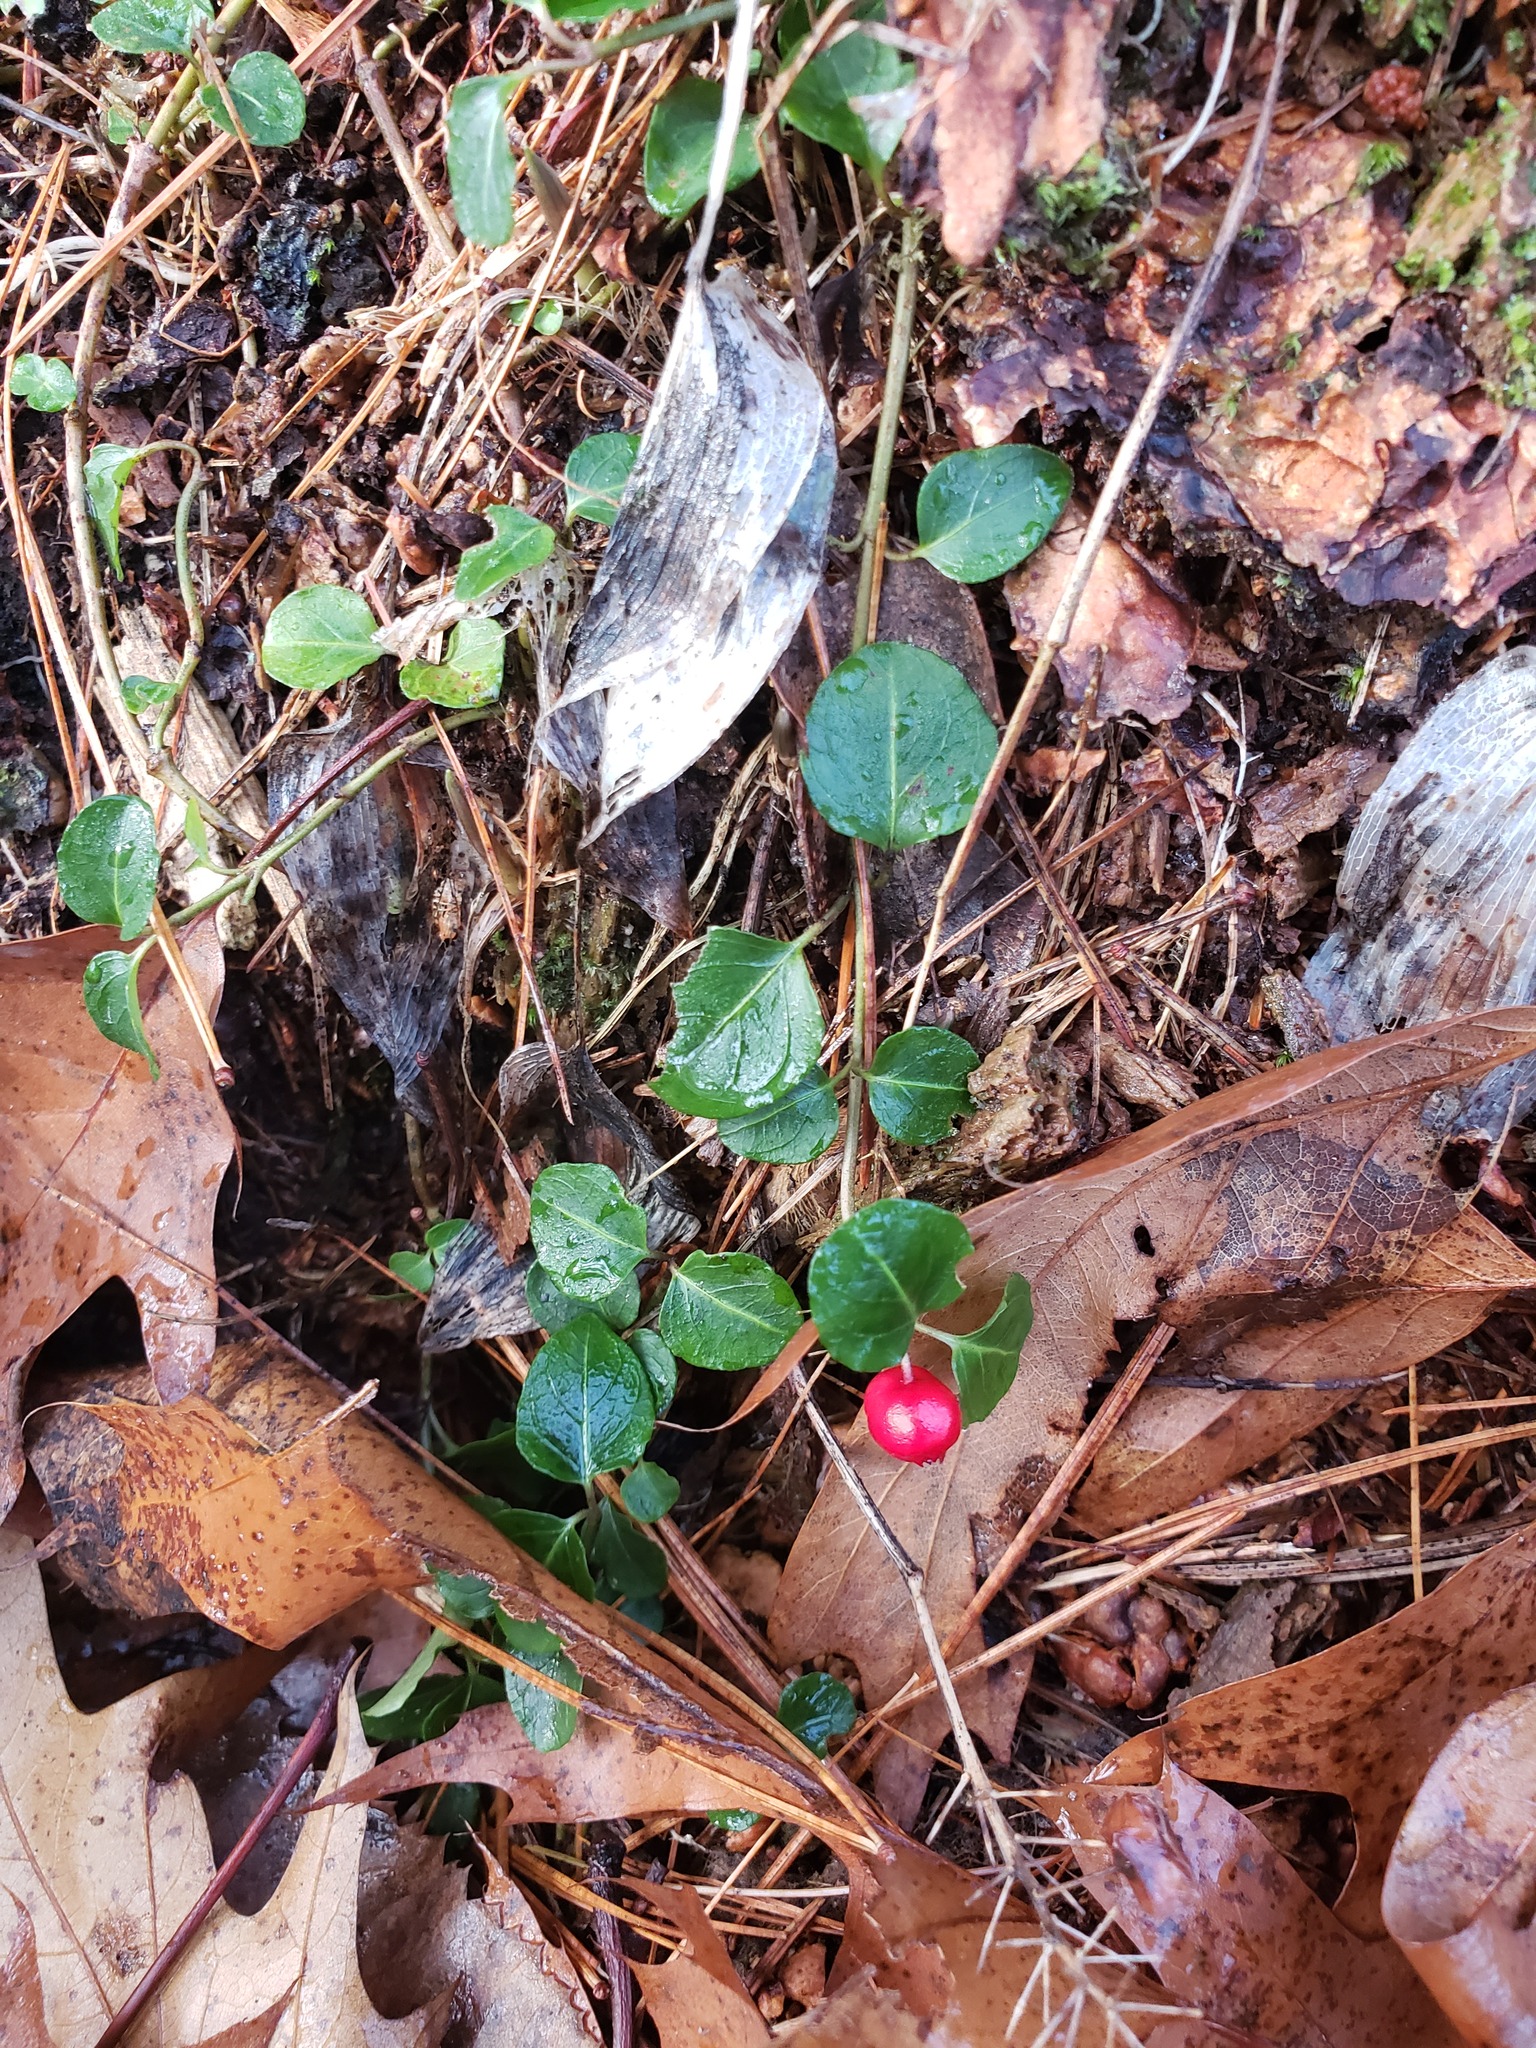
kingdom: Plantae
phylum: Tracheophyta
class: Magnoliopsida
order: Gentianales
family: Rubiaceae
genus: Mitchella
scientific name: Mitchella repens
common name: Partridge-berry
